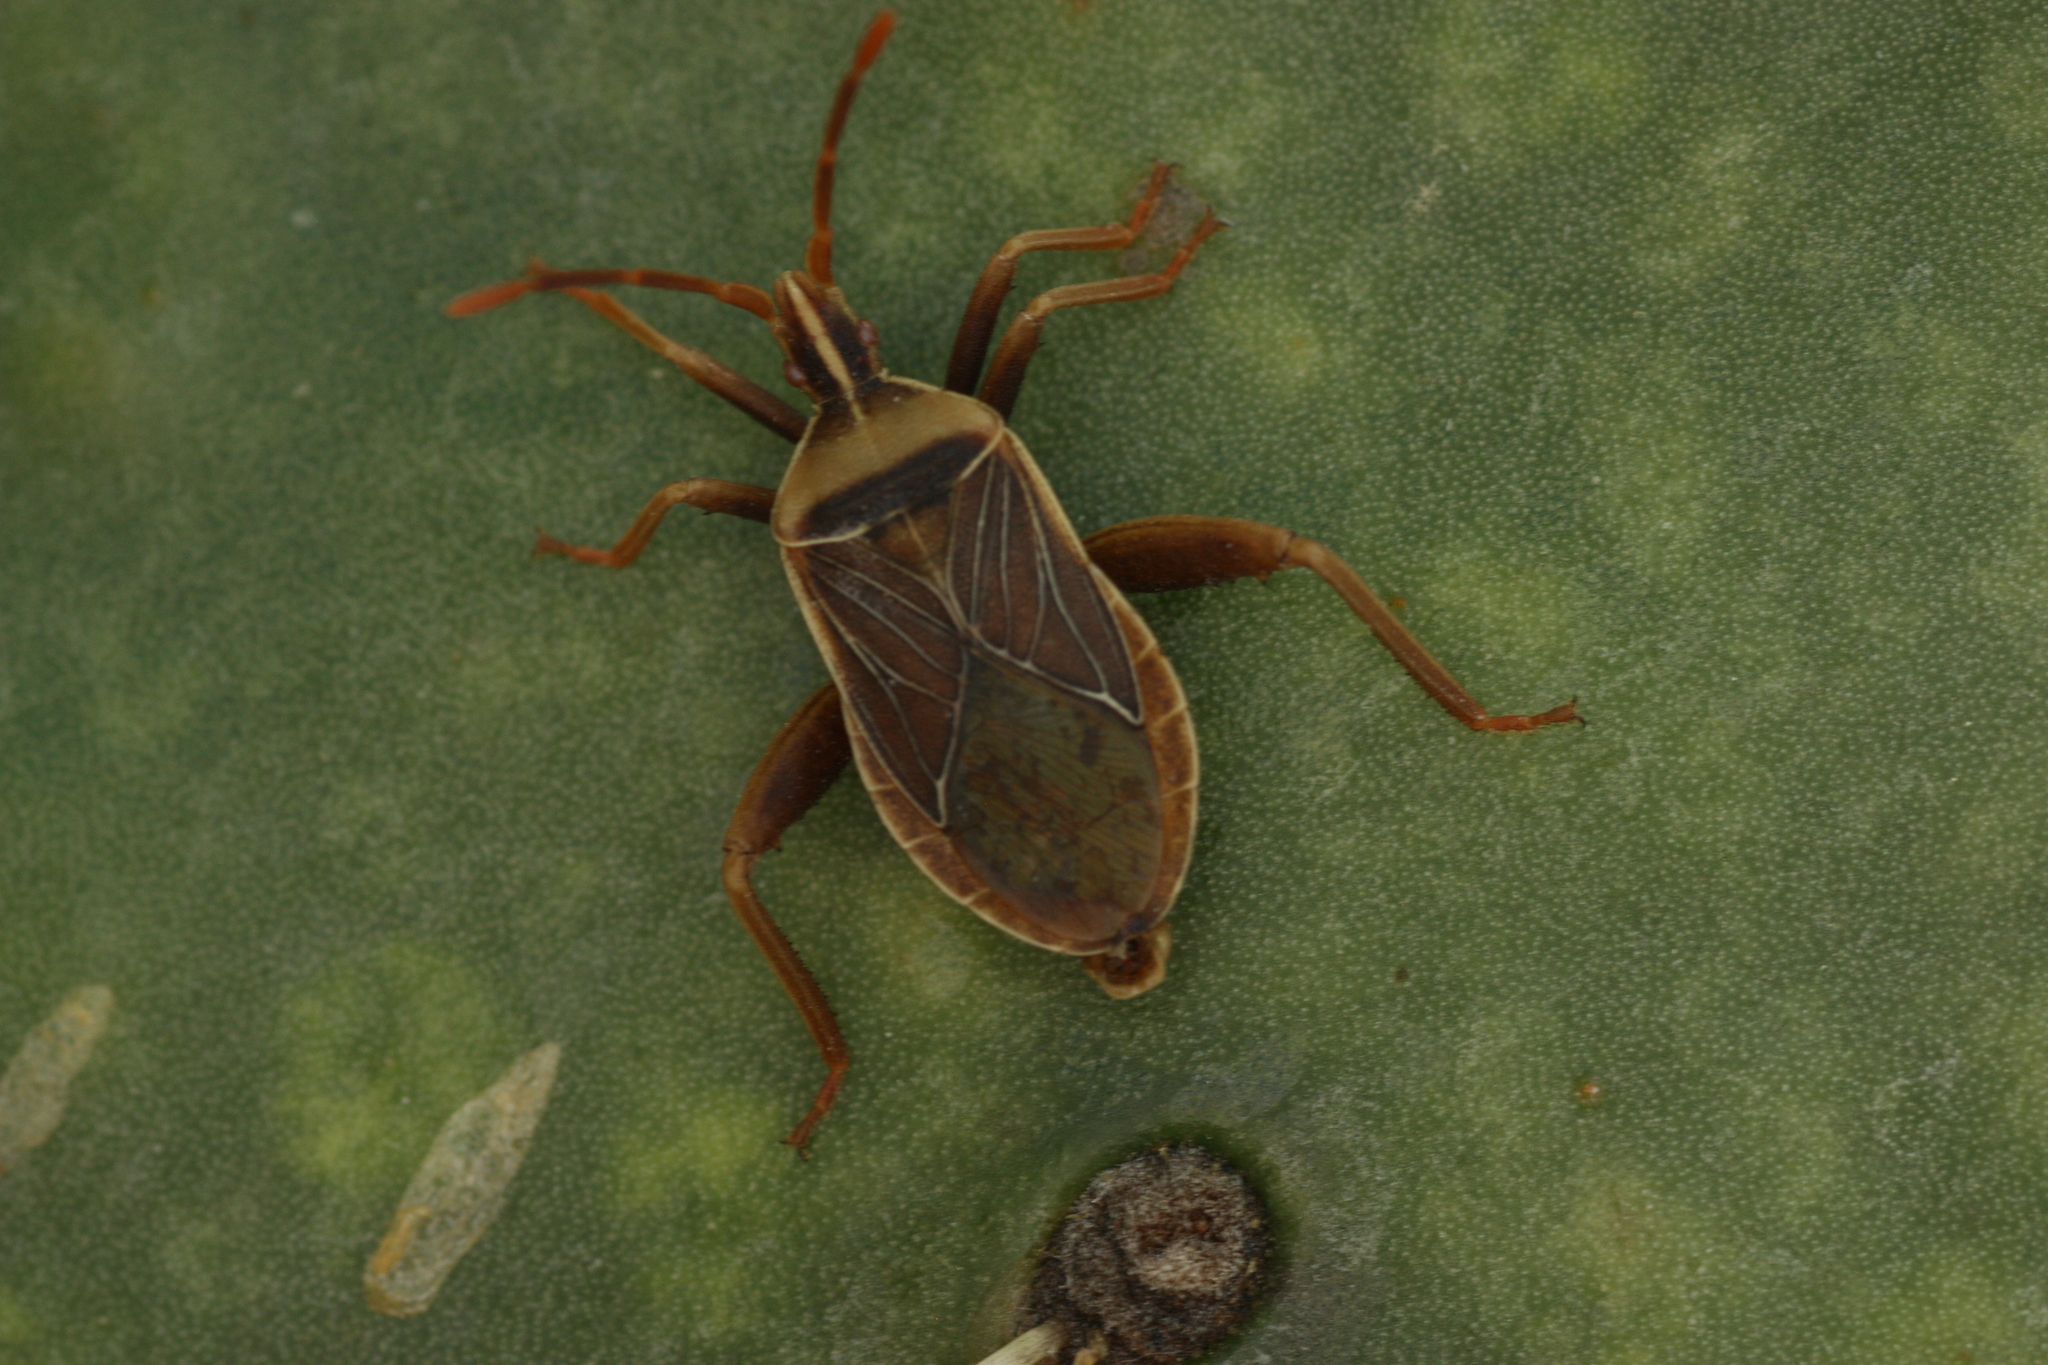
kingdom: Animalia
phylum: Arthropoda
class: Insecta
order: Hemiptera
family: Coreidae
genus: Chelinidea
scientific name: Chelinidea vittiger
